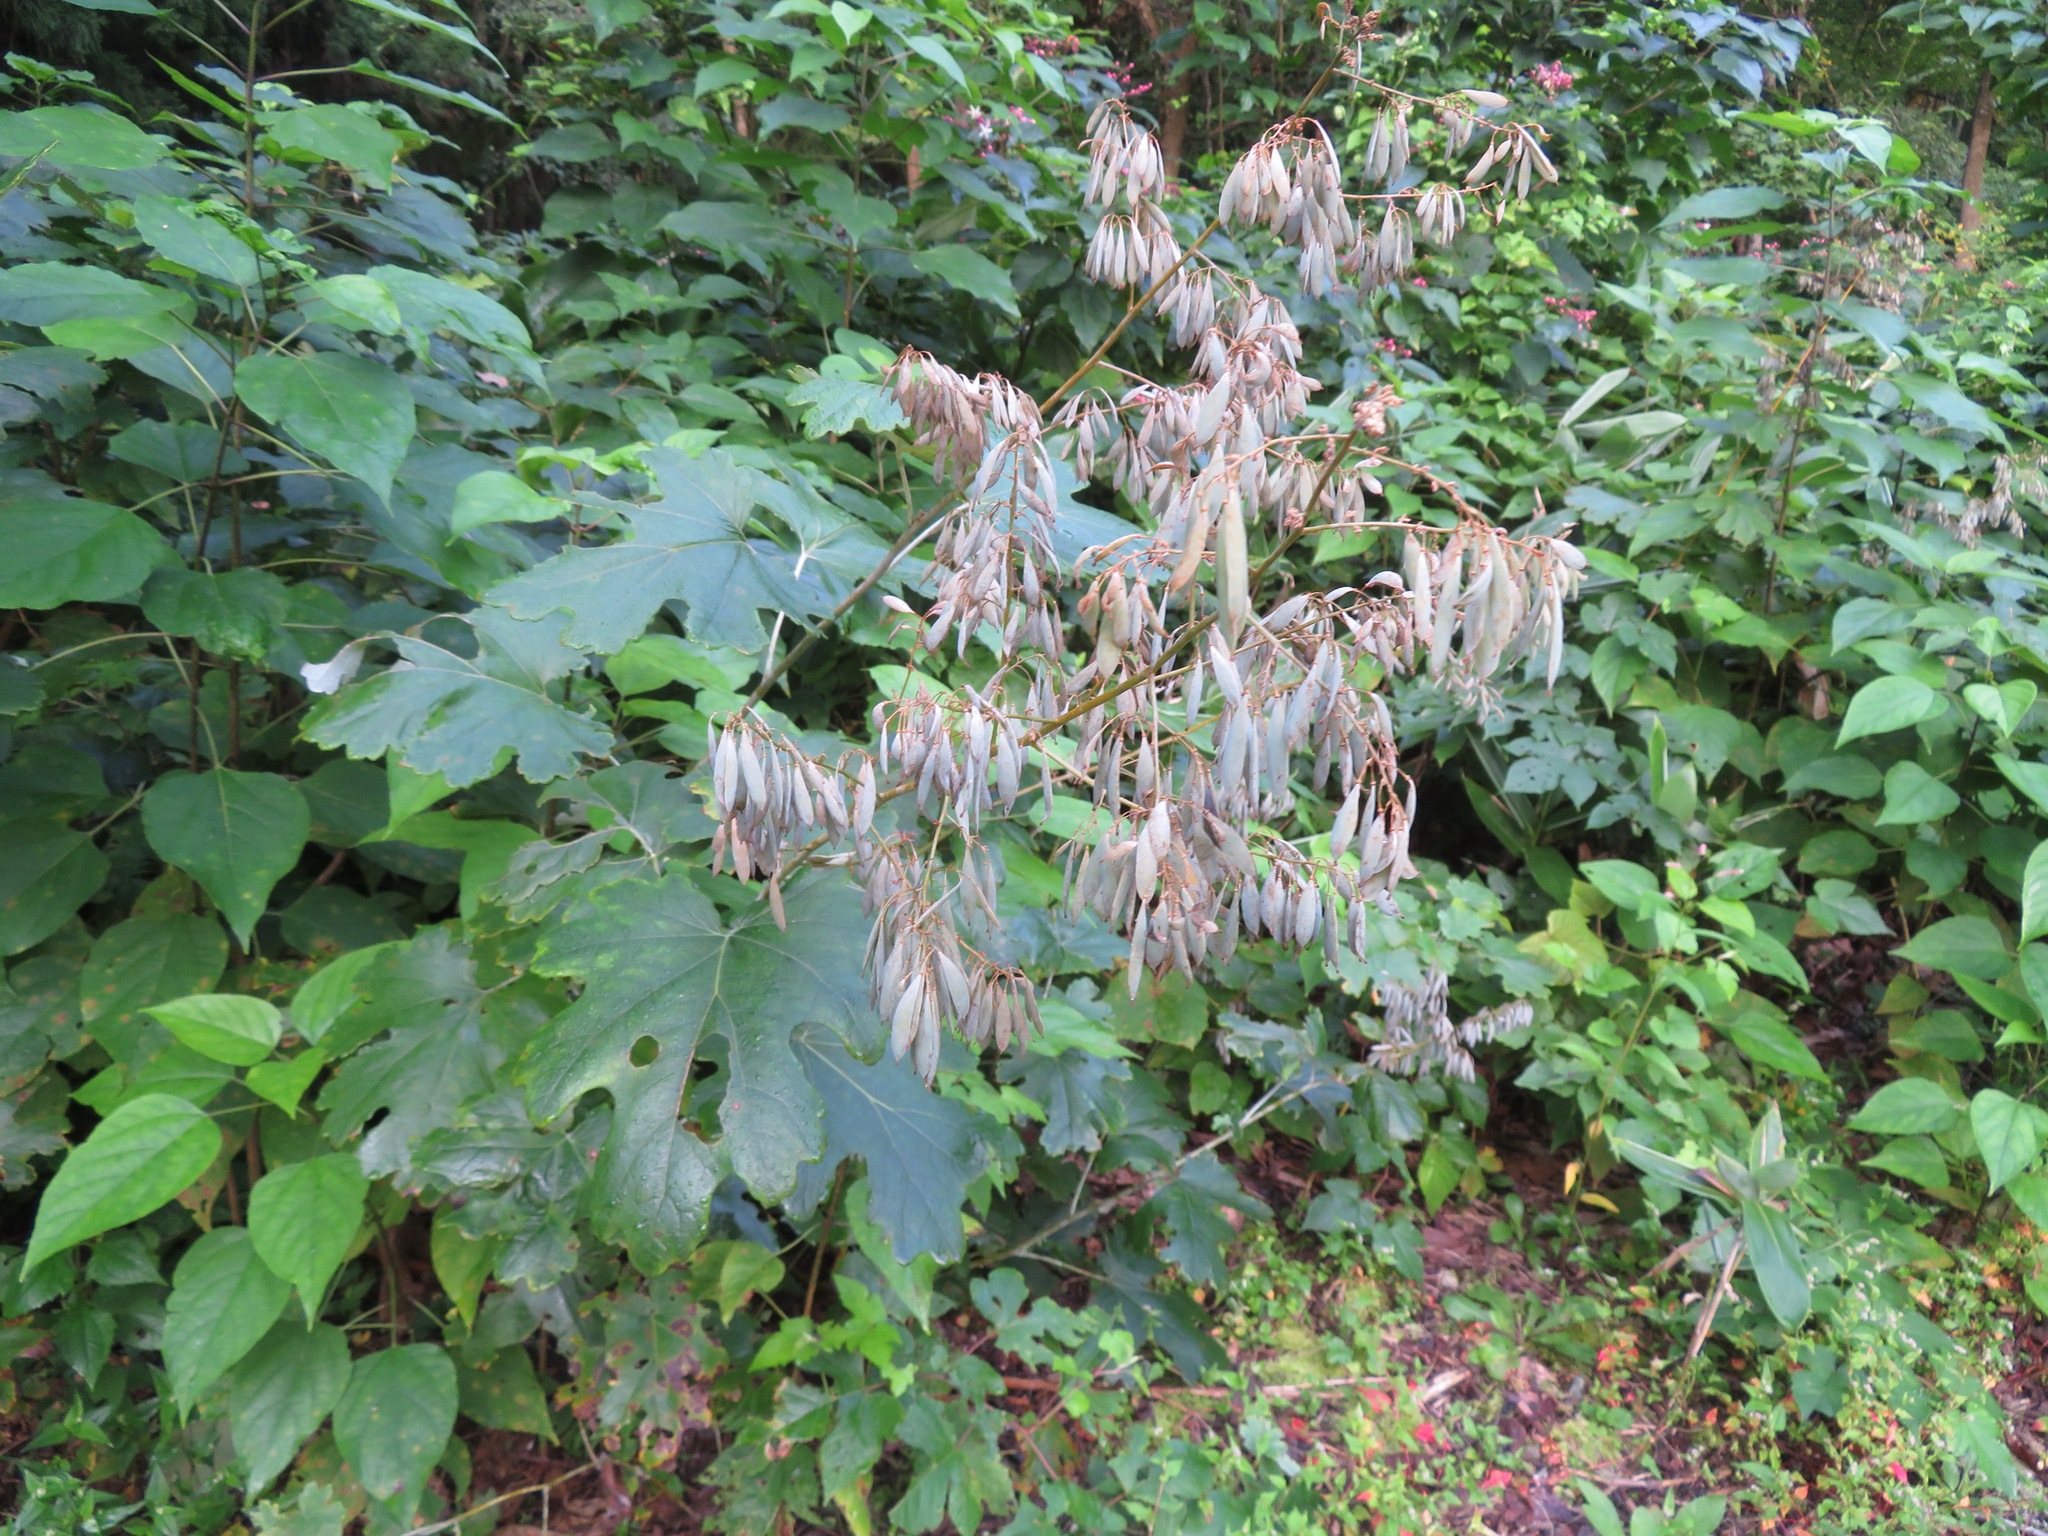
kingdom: Plantae
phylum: Tracheophyta
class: Magnoliopsida
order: Ranunculales
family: Papaveraceae
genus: Macleaya
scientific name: Macleaya cordata
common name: Plume poppy
